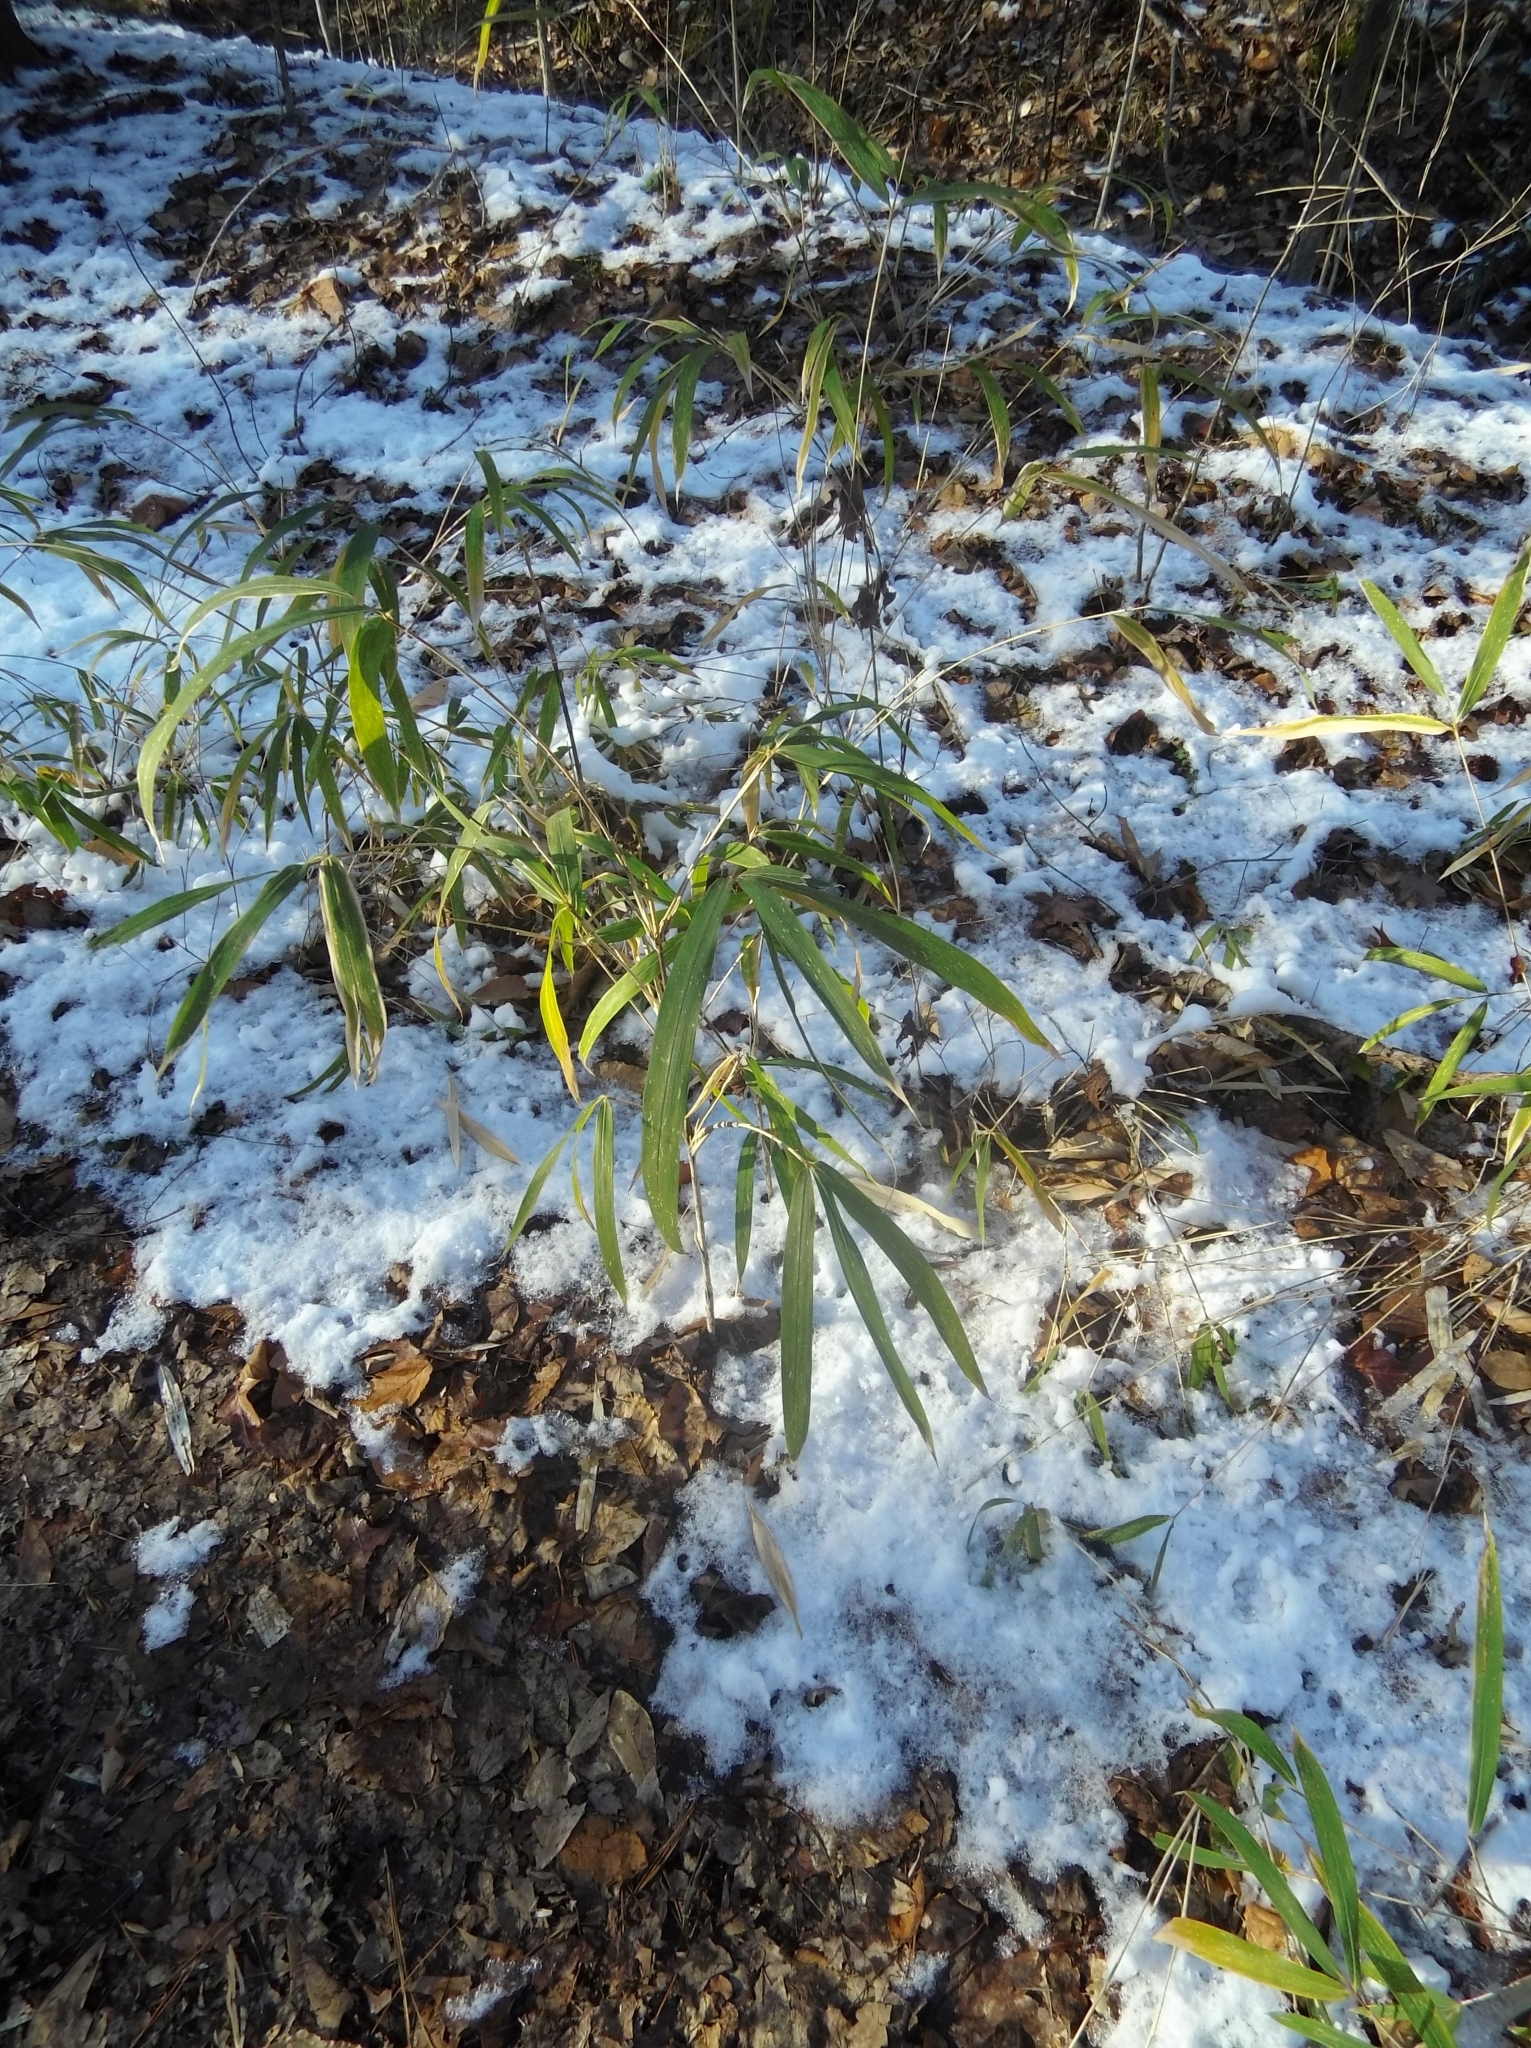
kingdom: Plantae
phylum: Tracheophyta
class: Liliopsida
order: Poales
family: Poaceae
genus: Arundinaria
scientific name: Arundinaria tecta
